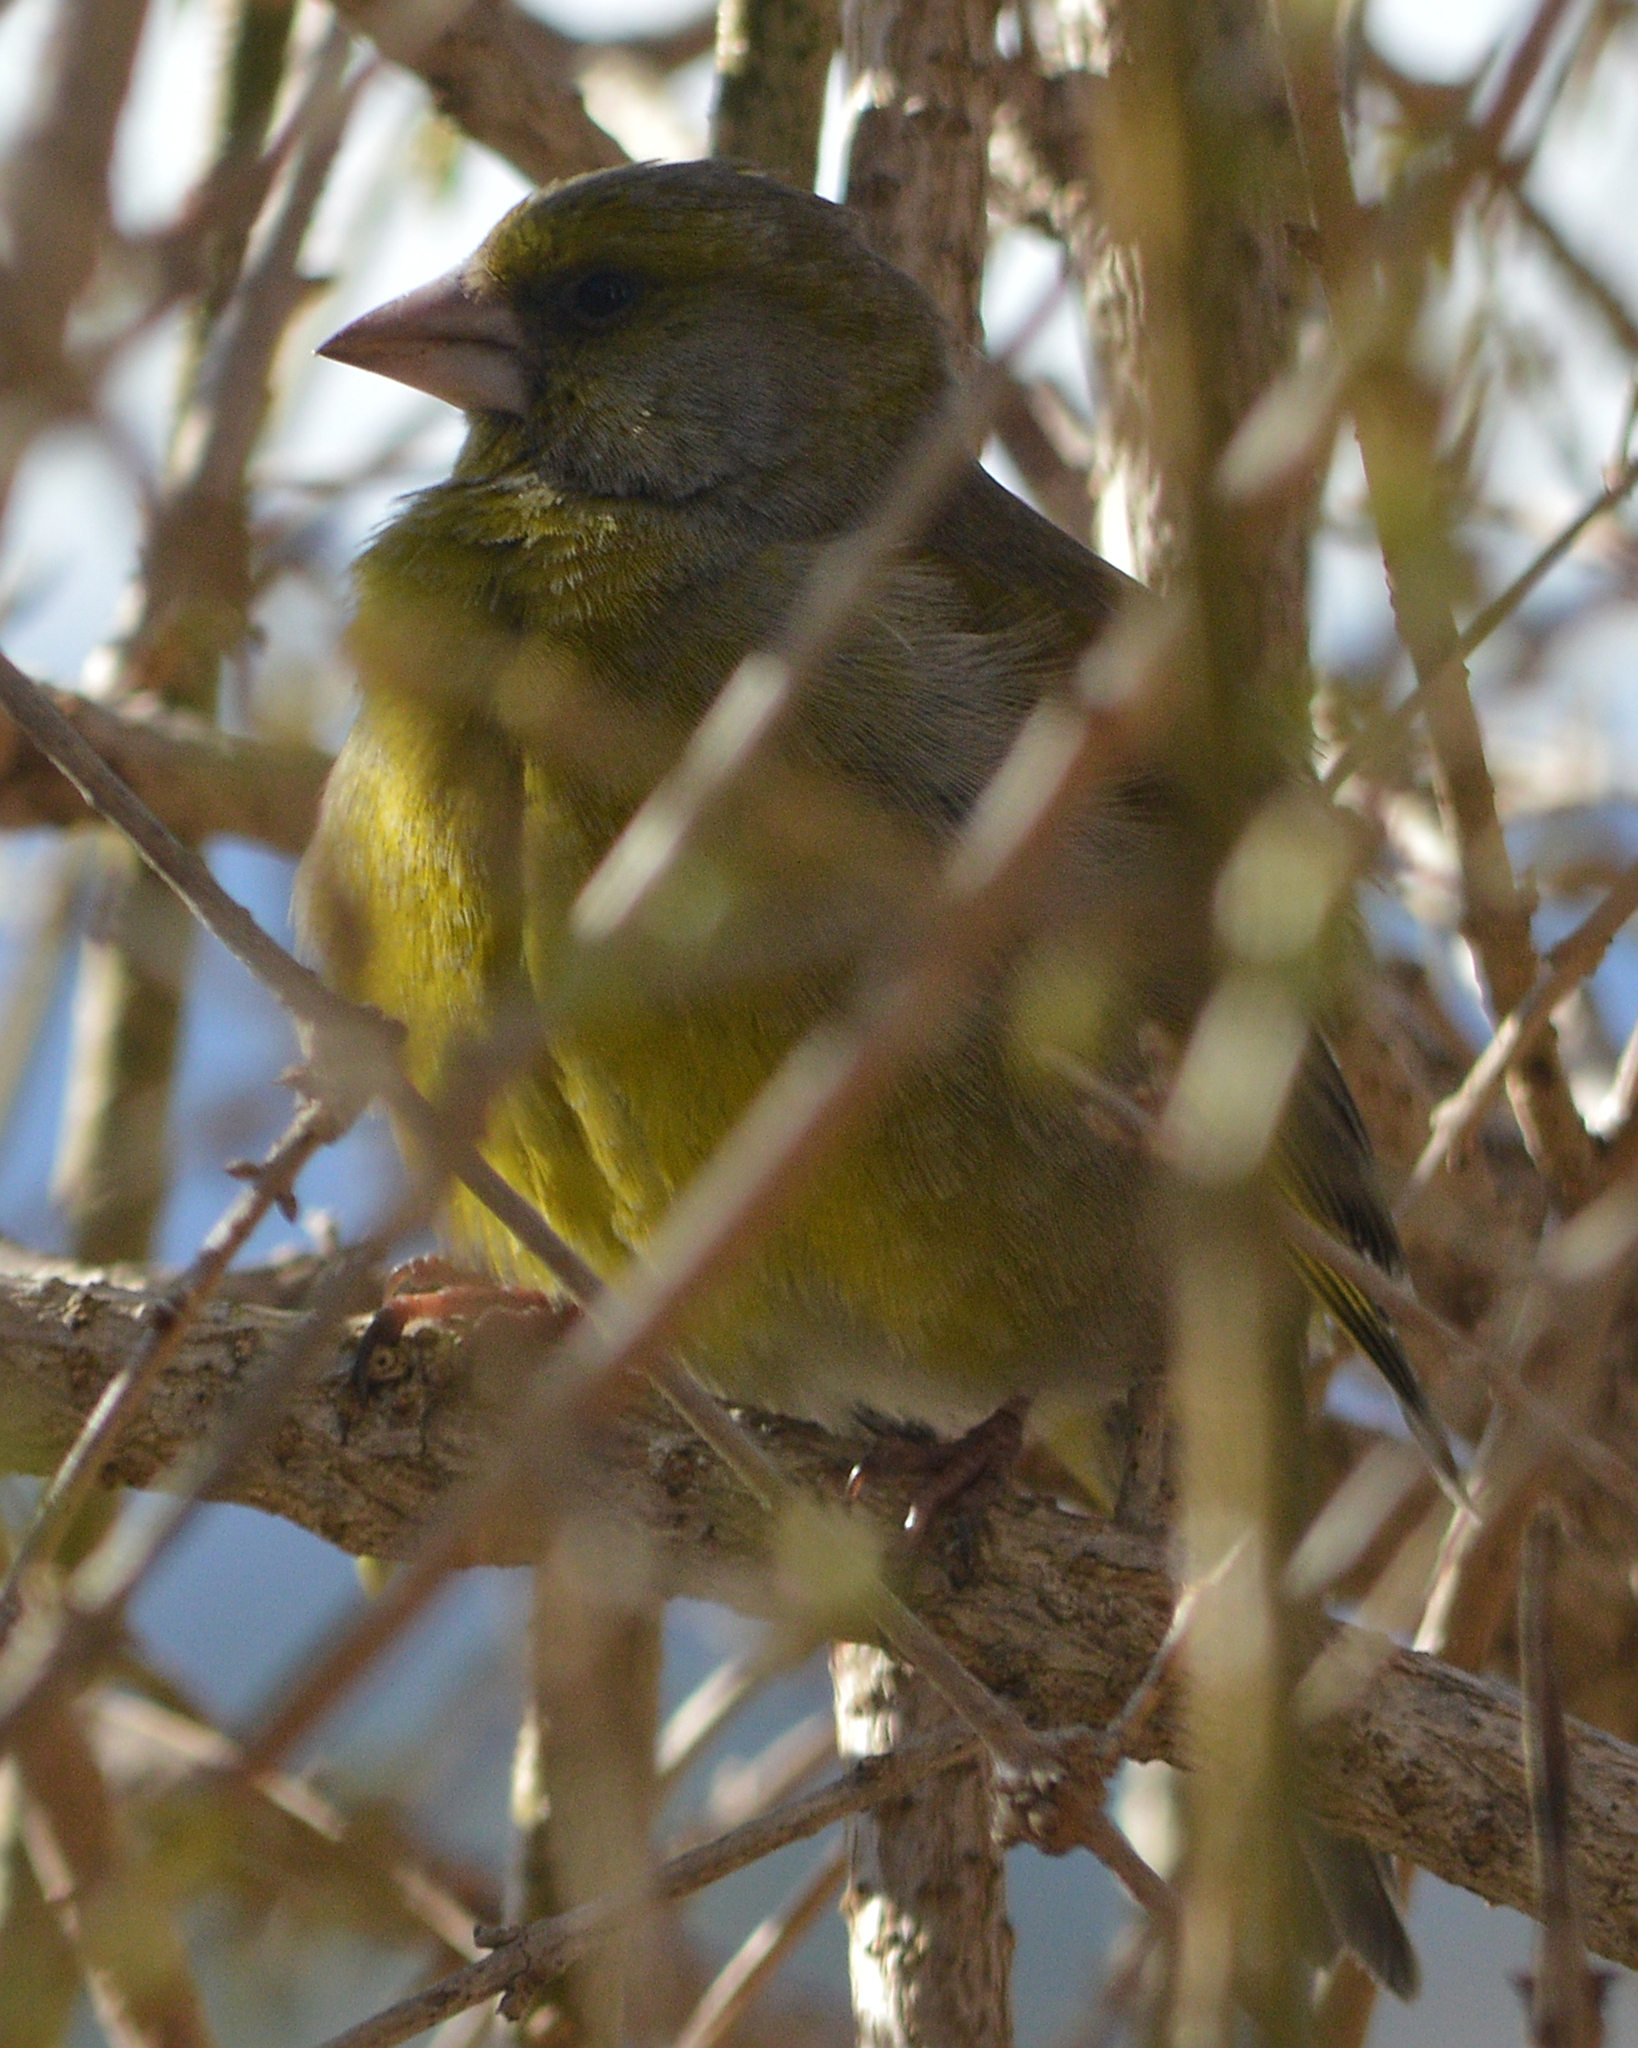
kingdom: Plantae
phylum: Tracheophyta
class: Liliopsida
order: Poales
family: Poaceae
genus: Chloris
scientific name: Chloris chloris
